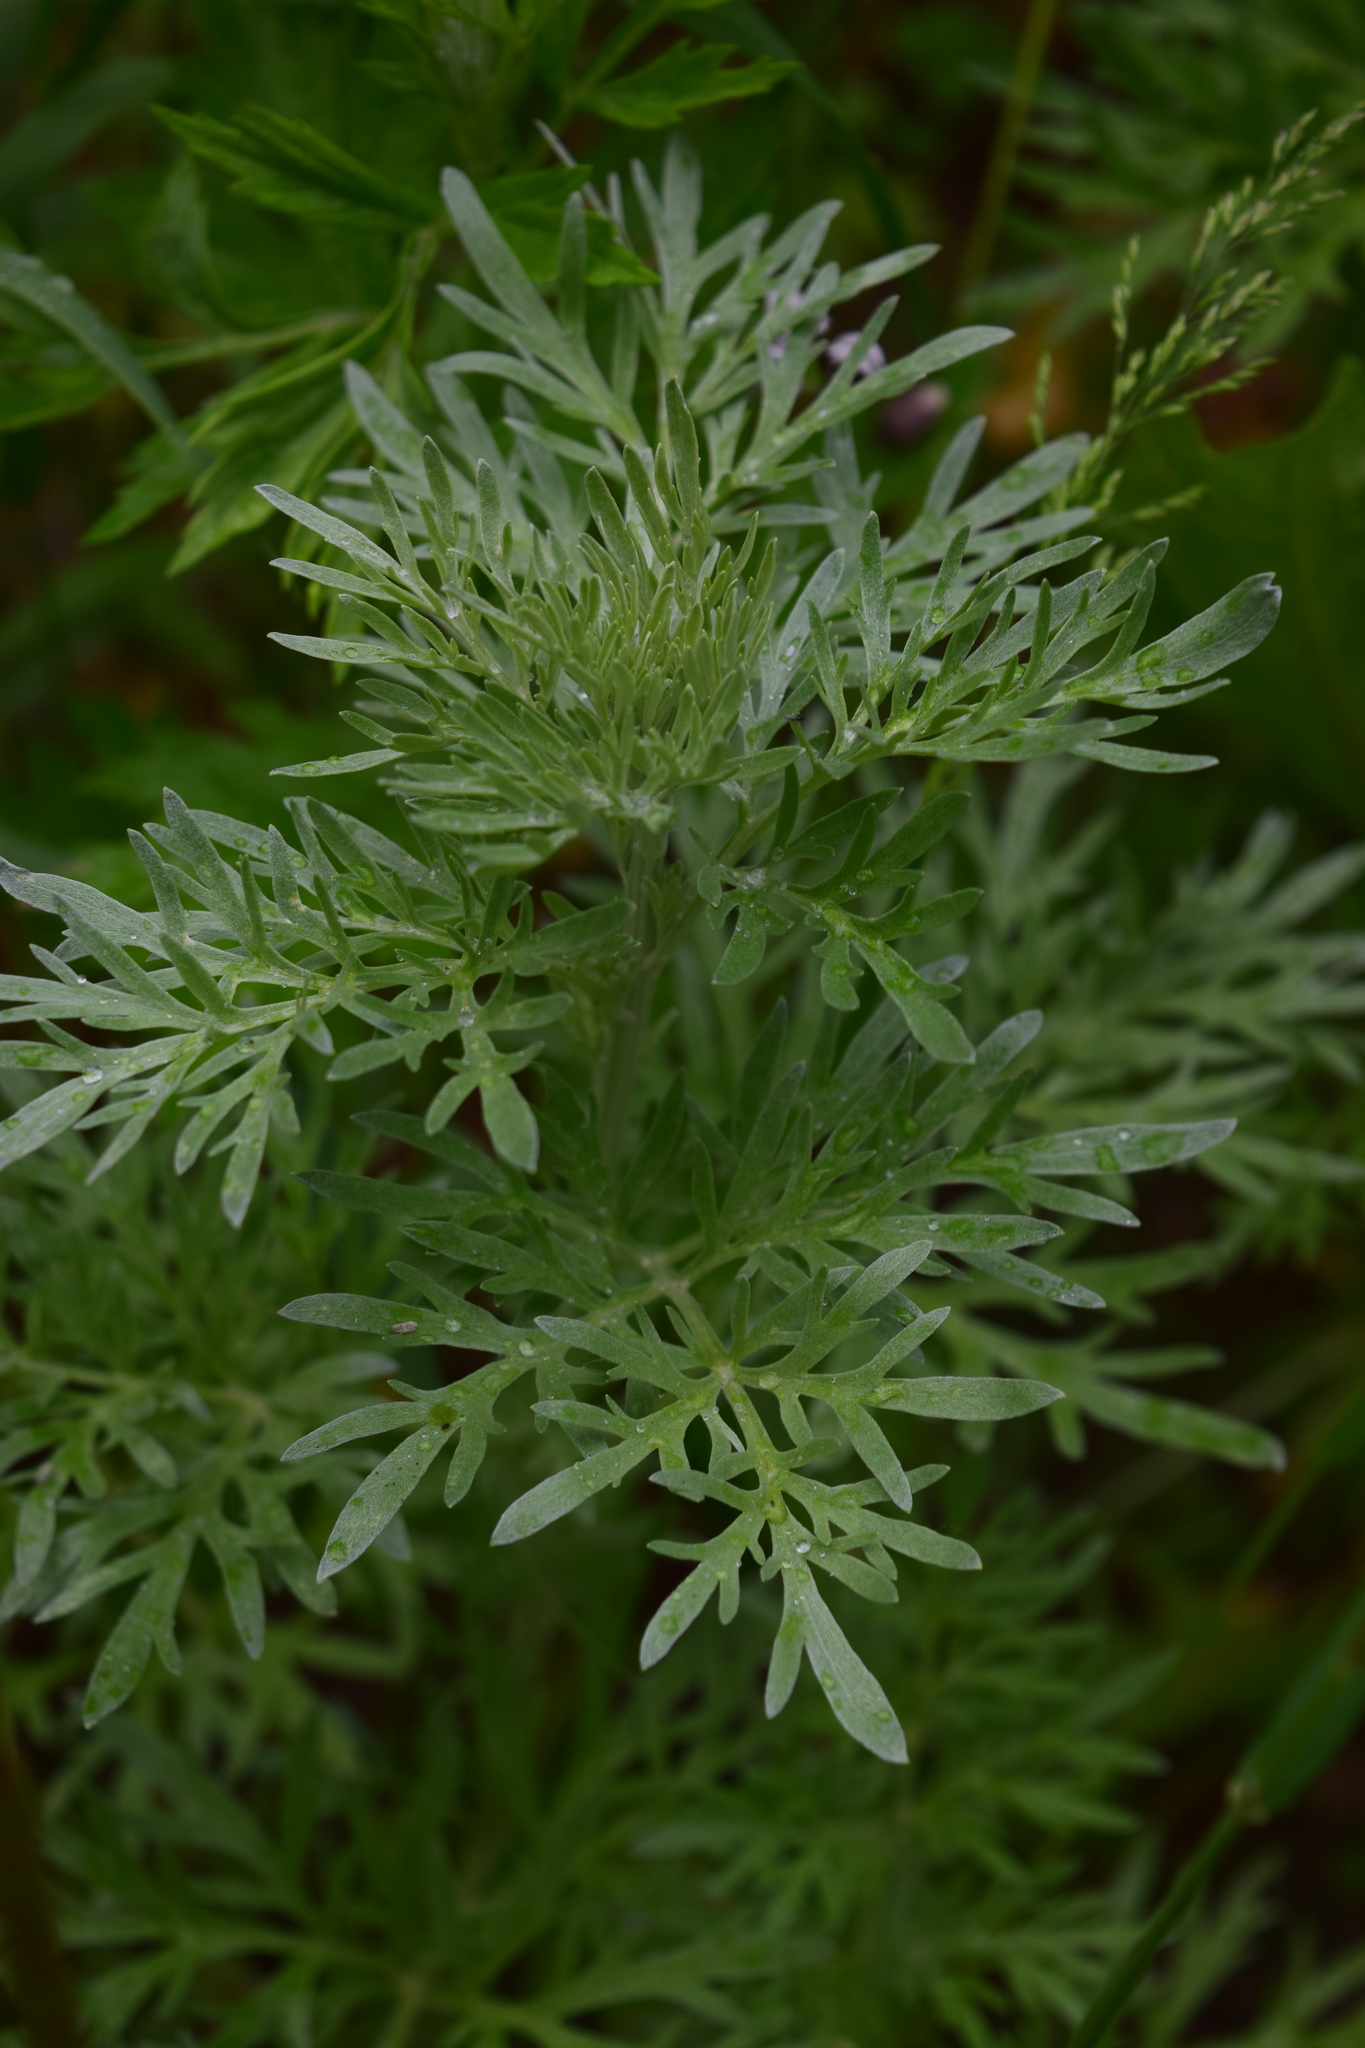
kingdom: Plantae
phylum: Tracheophyta
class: Magnoliopsida
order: Asterales
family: Asteraceae
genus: Artemisia
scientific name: Artemisia absinthium
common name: Wormwood
